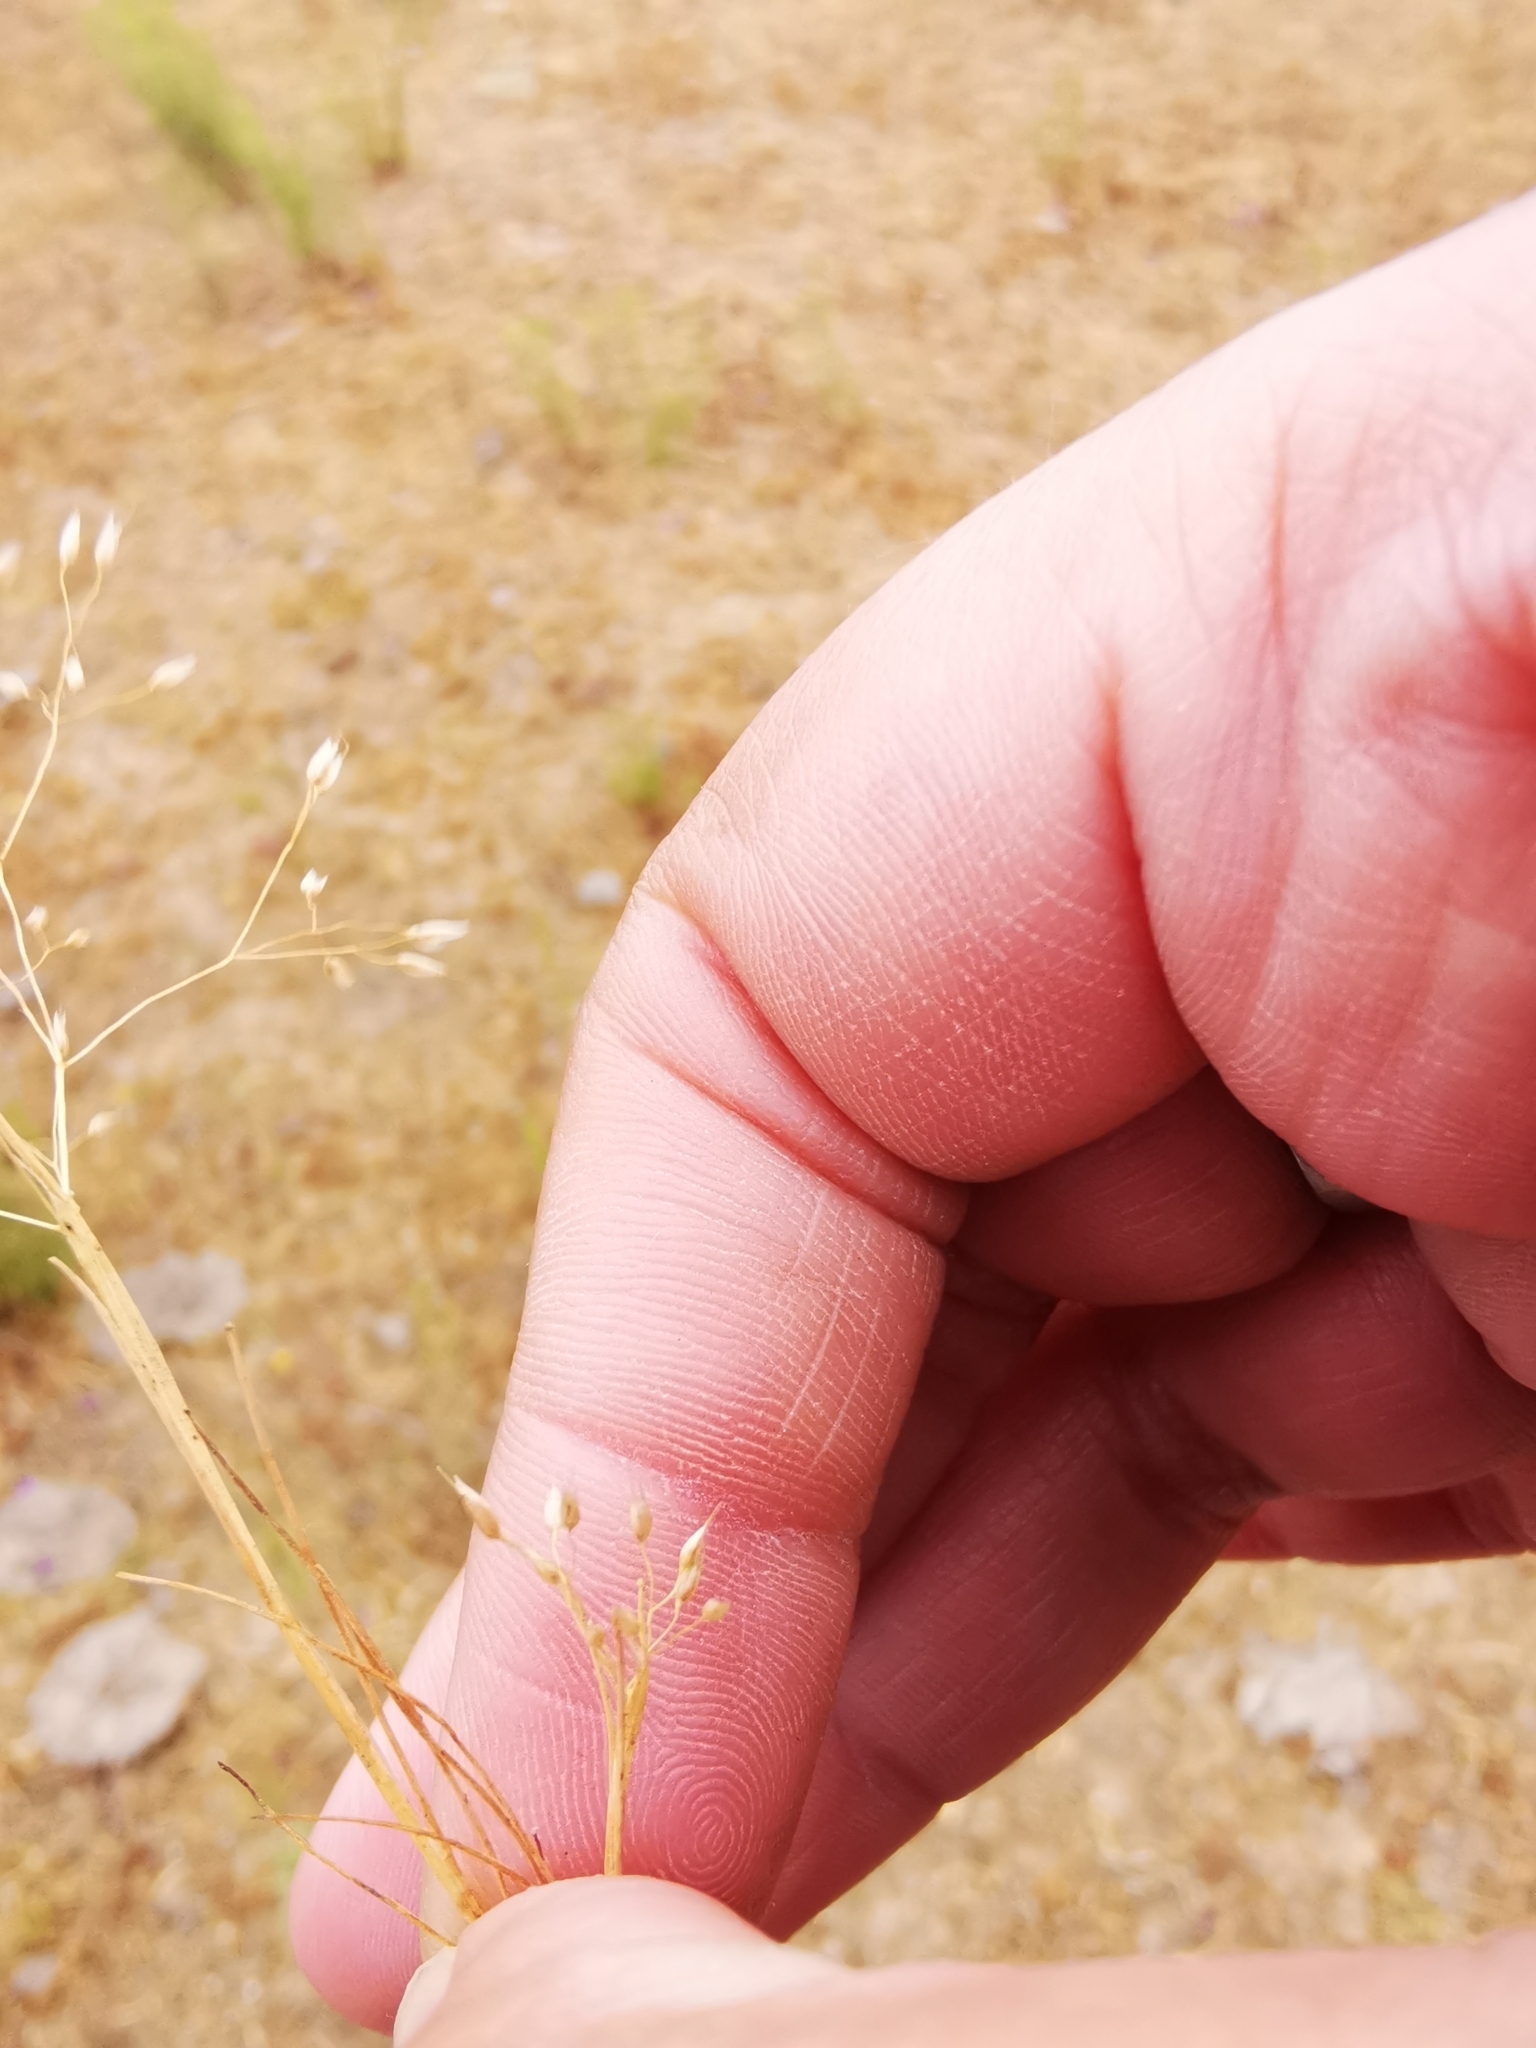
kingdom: Plantae
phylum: Tracheophyta
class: Liliopsida
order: Poales
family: Poaceae
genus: Aira
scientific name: Aira caryophyllea
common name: Silver hairgrass
